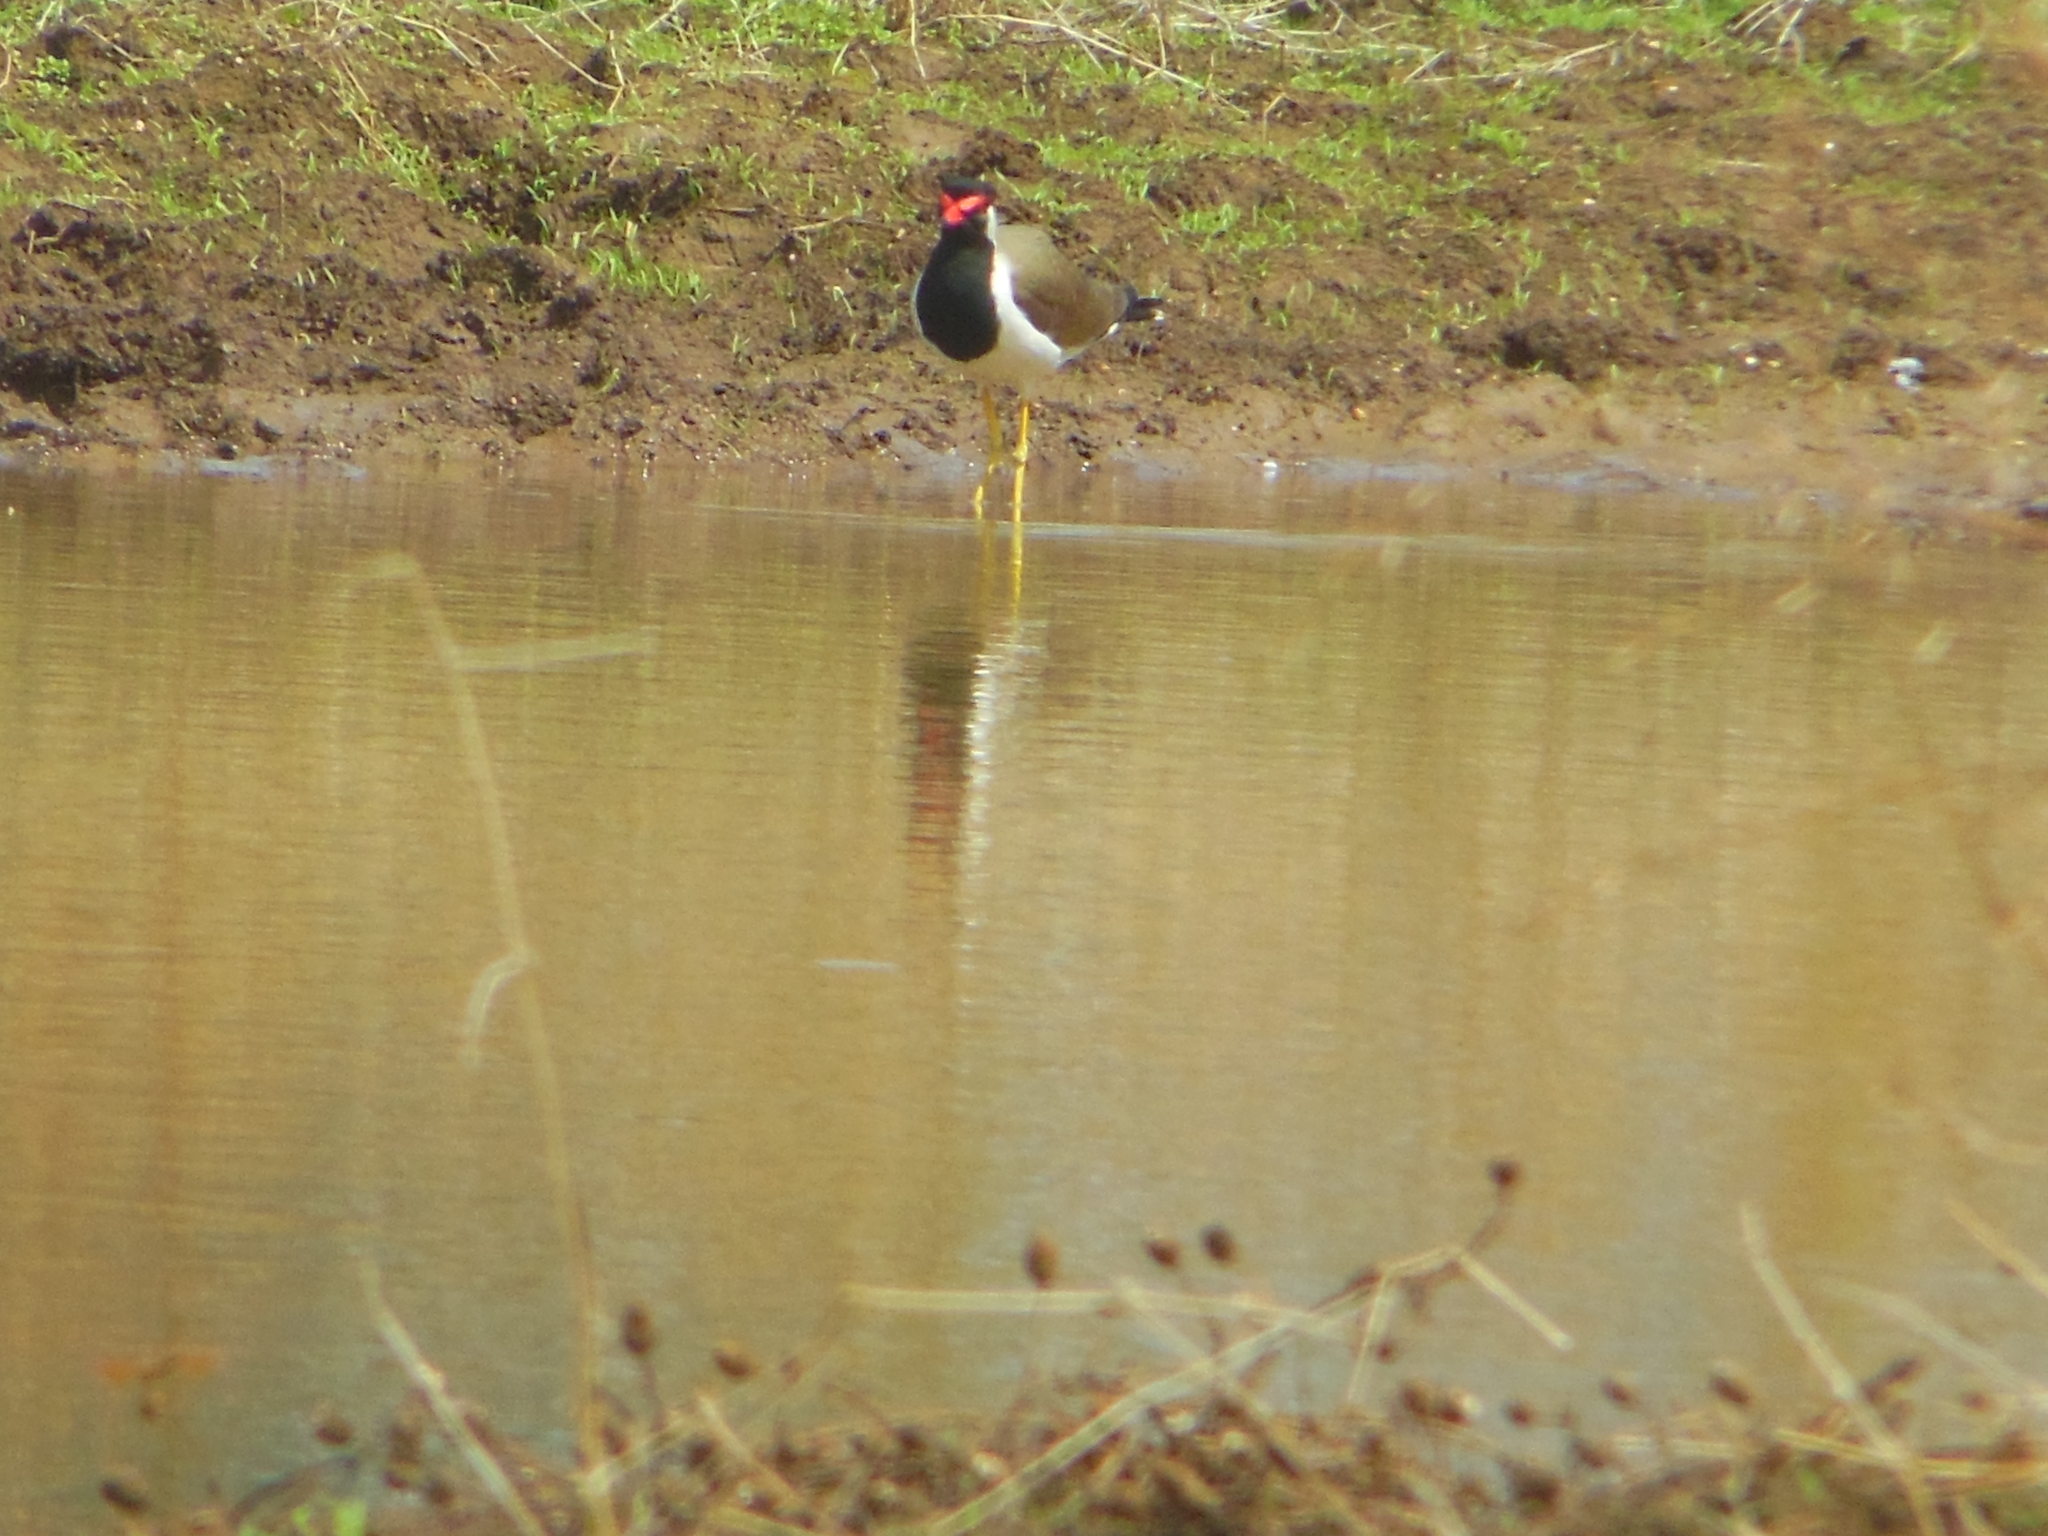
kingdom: Animalia
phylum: Chordata
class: Aves
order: Charadriiformes
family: Charadriidae
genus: Vanellus
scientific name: Vanellus indicus
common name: Red-wattled lapwing
